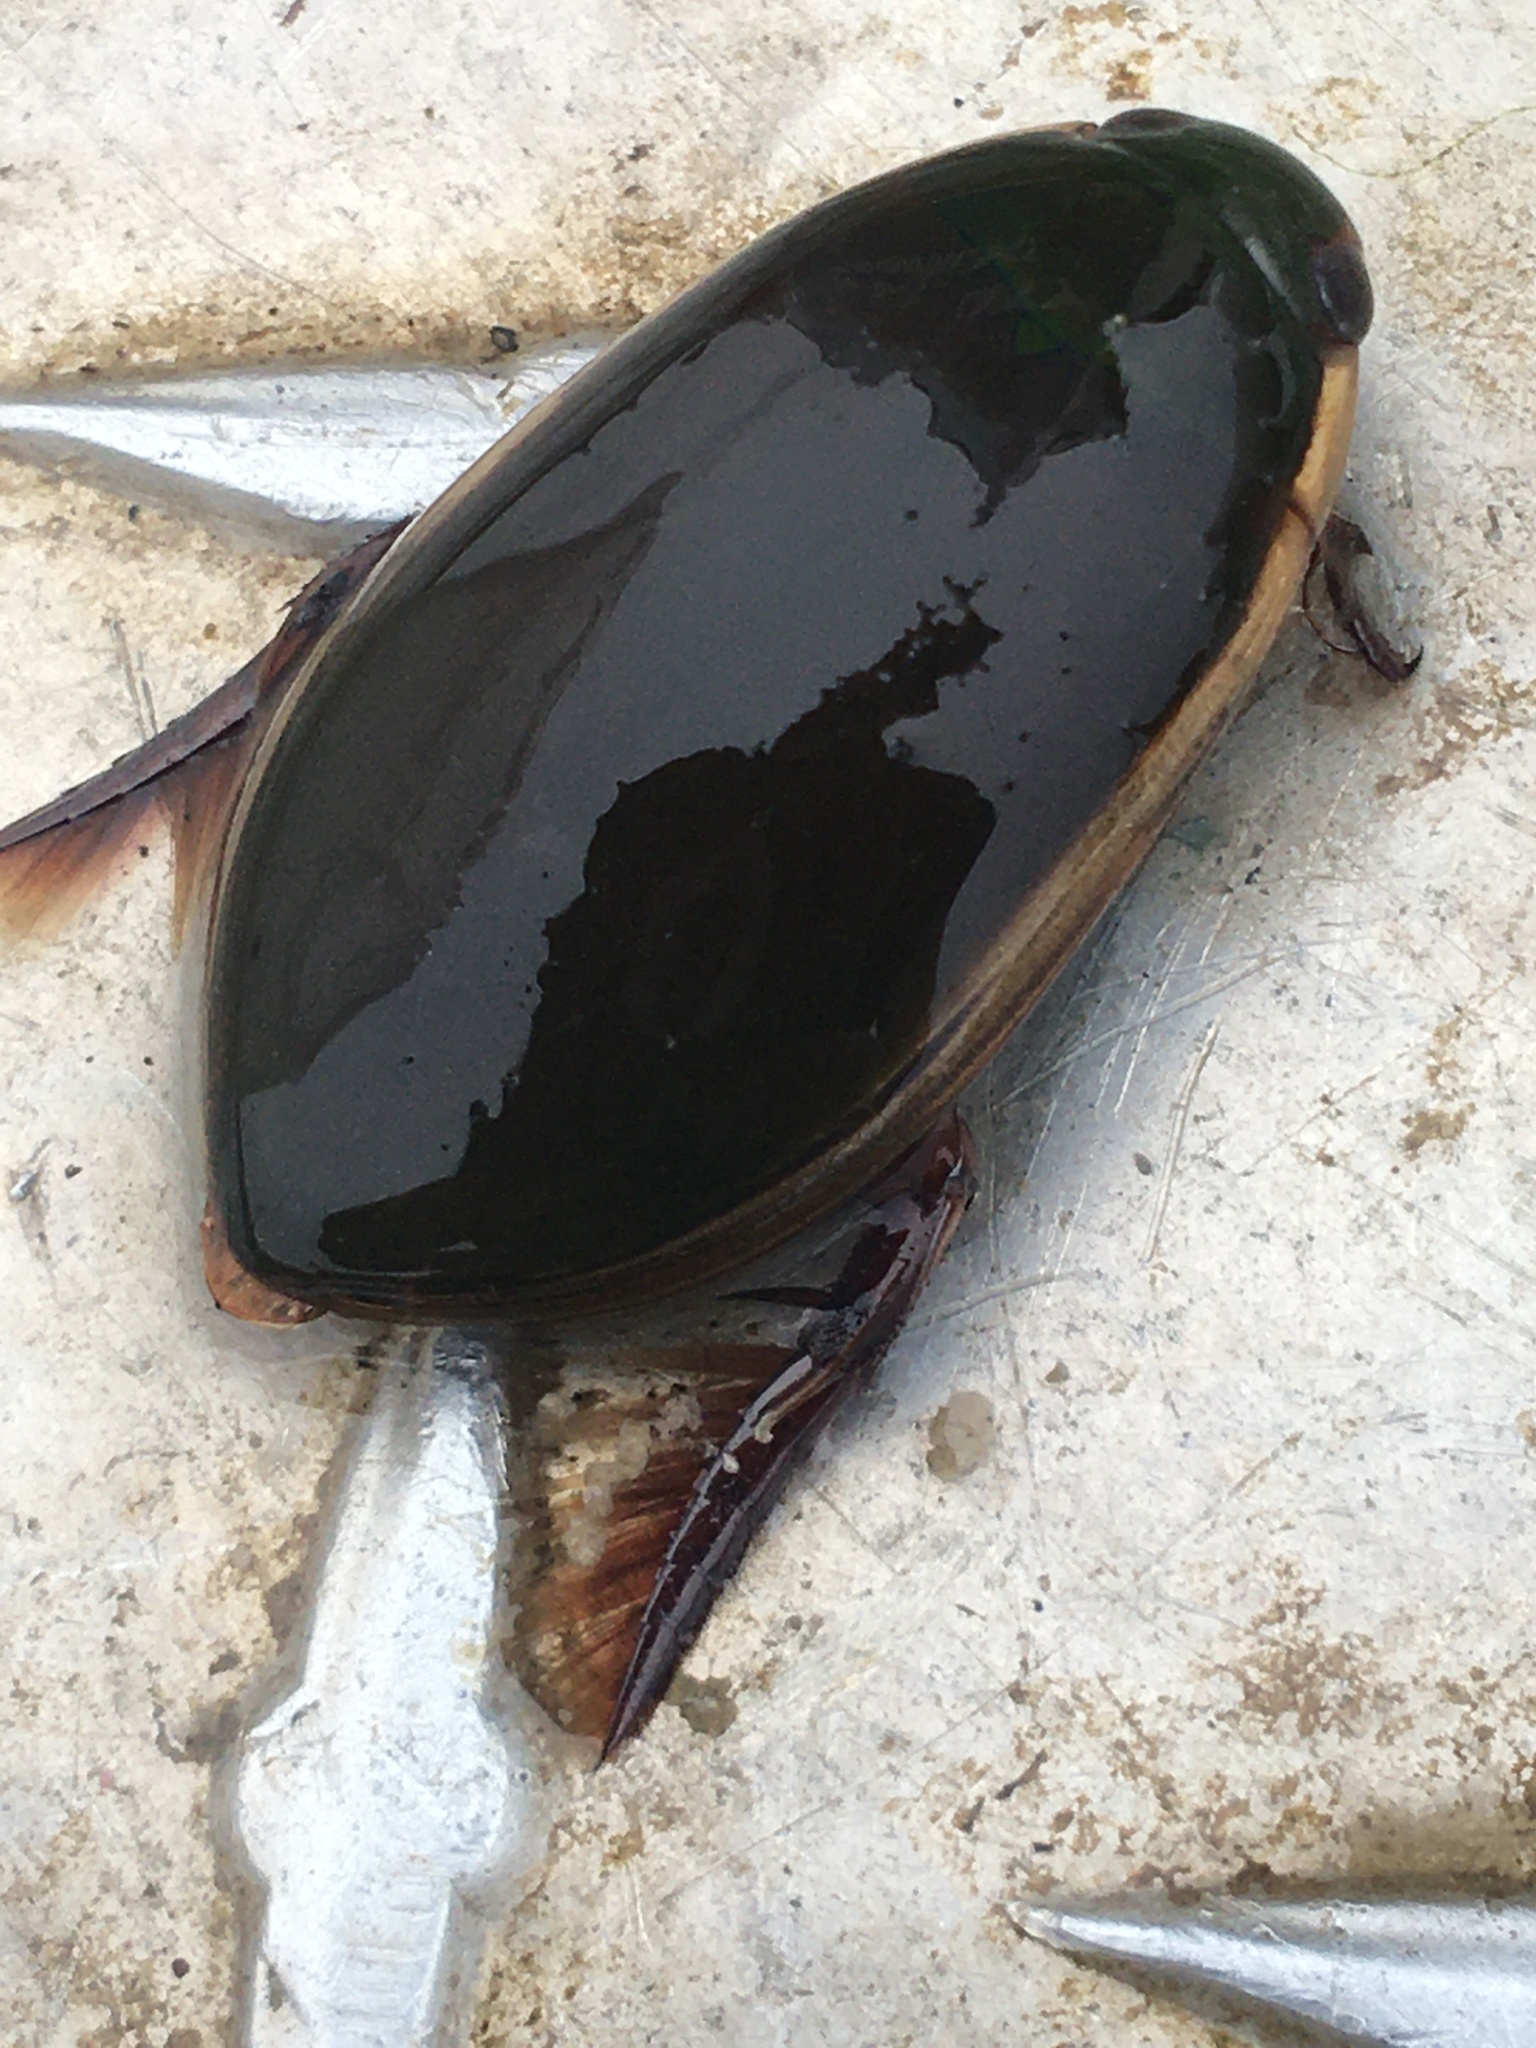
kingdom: Animalia
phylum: Arthropoda
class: Insecta
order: Coleoptera
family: Dytiscidae
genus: Cybister
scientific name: Cybister fimbriolatus
